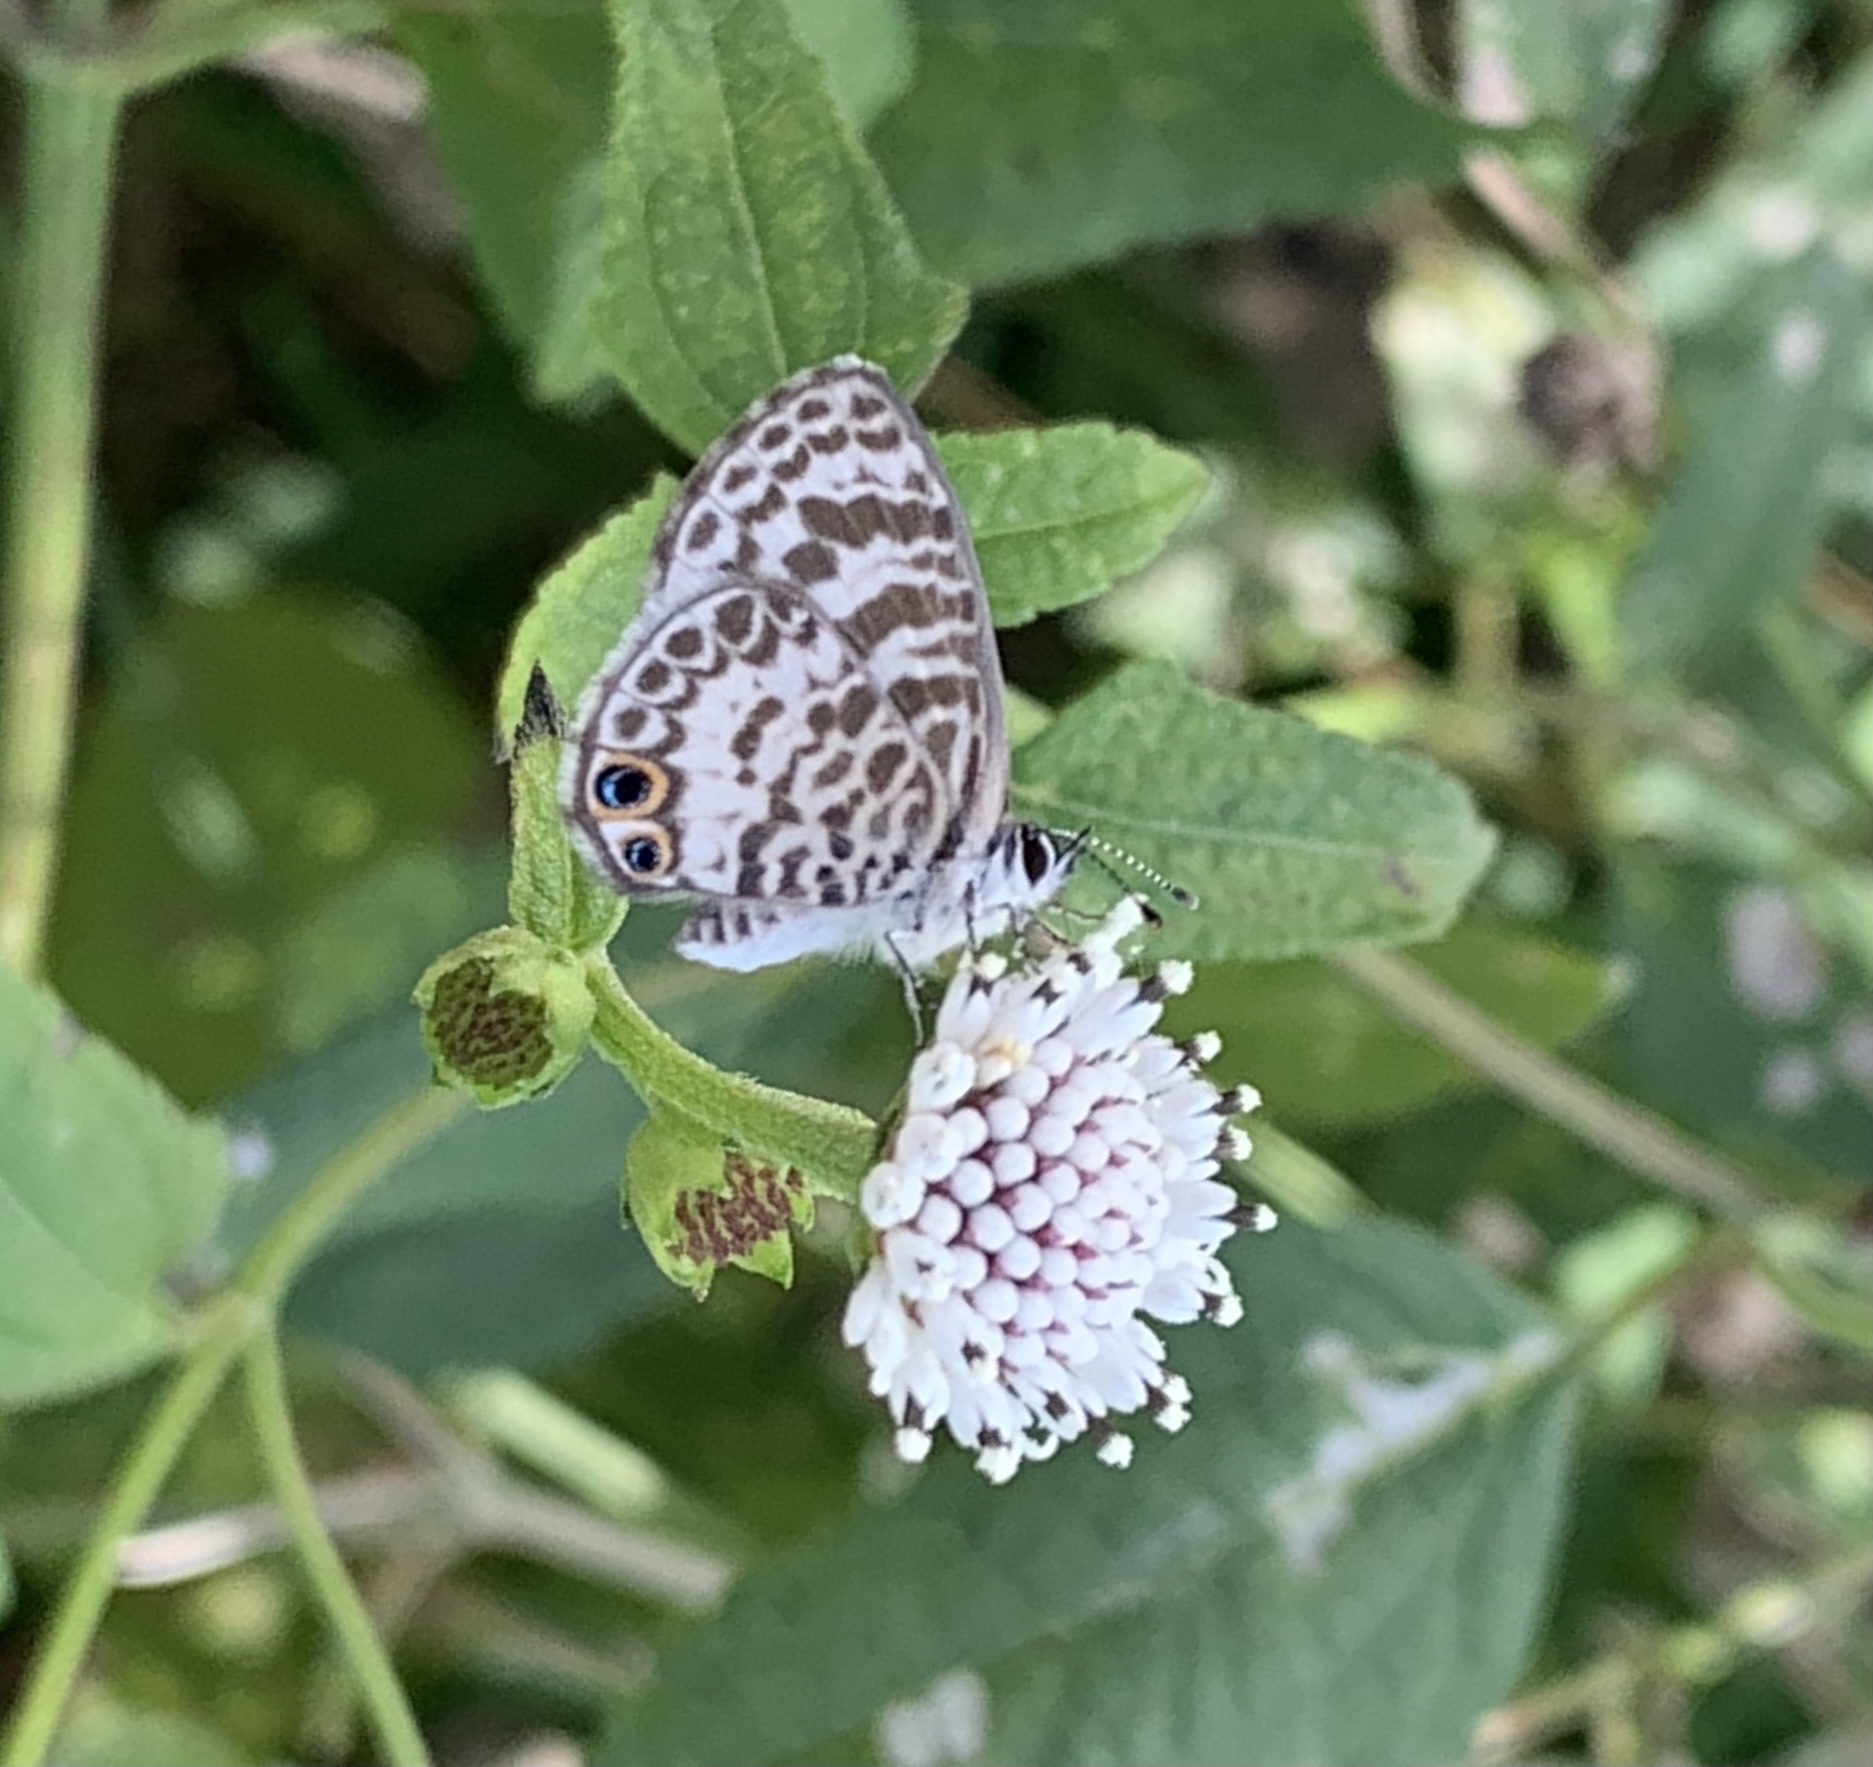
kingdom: Animalia
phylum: Arthropoda
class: Insecta
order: Lepidoptera
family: Lycaenidae
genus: Leptotes
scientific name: Leptotes cassius
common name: Cassius blue
